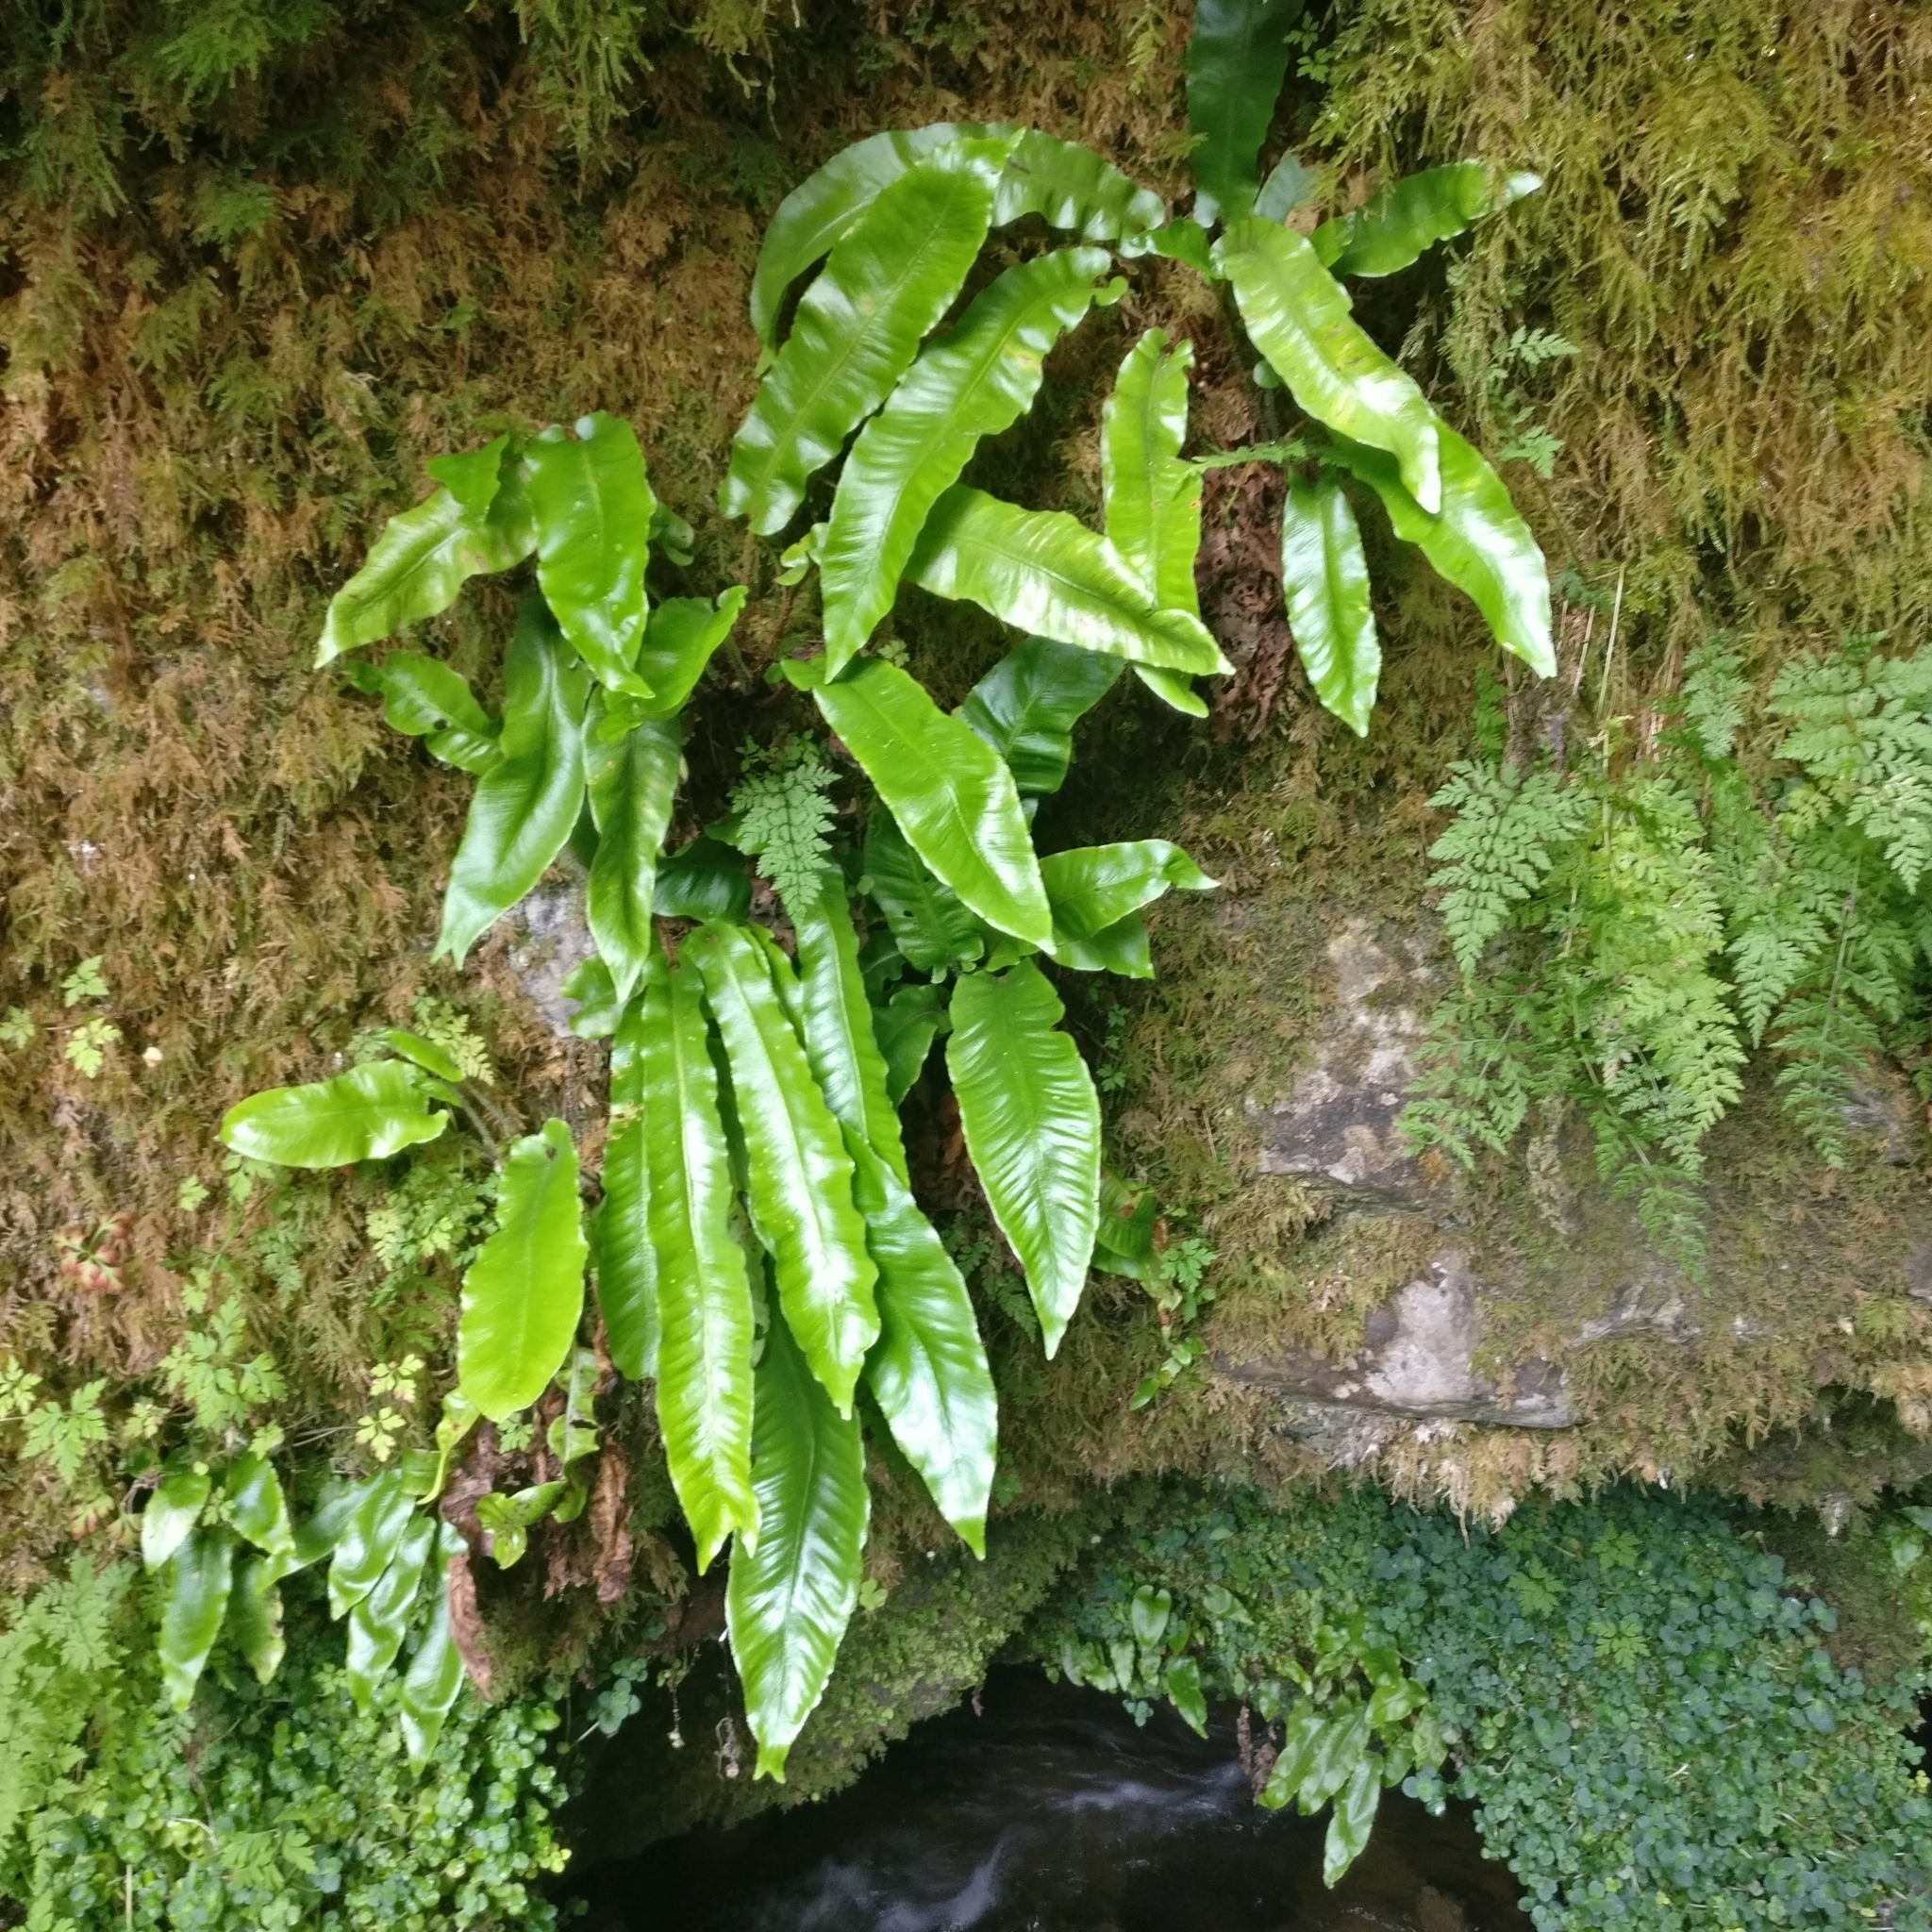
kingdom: Plantae
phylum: Tracheophyta
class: Polypodiopsida
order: Polypodiales
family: Aspleniaceae
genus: Asplenium
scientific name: Asplenium scolopendrium
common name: Hart's-tongue fern
